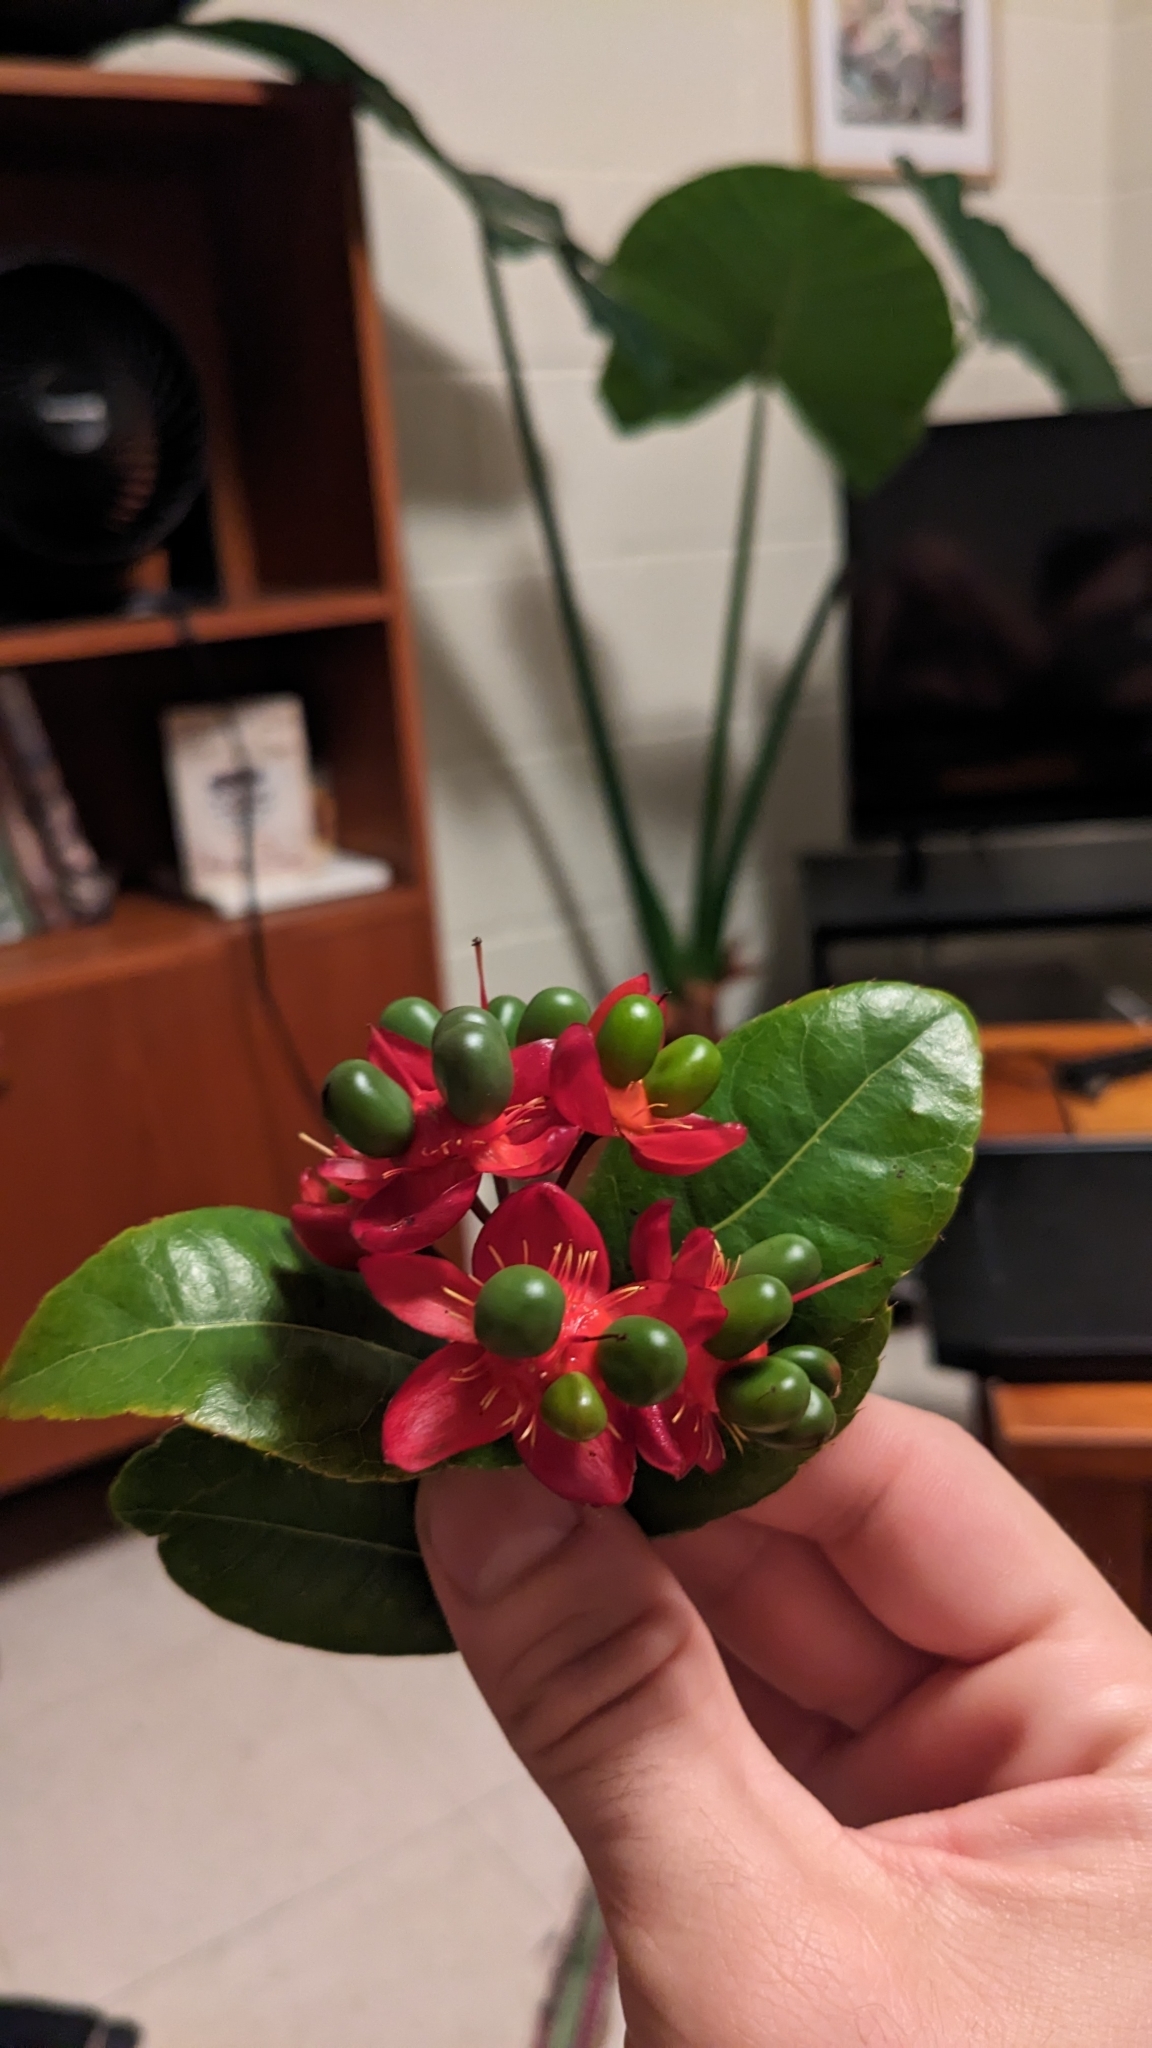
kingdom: Plantae
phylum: Tracheophyta
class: Magnoliopsida
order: Malpighiales
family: Ochnaceae
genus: Ochna
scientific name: Ochna thomasiana
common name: Thomas' bird's-eye bush
